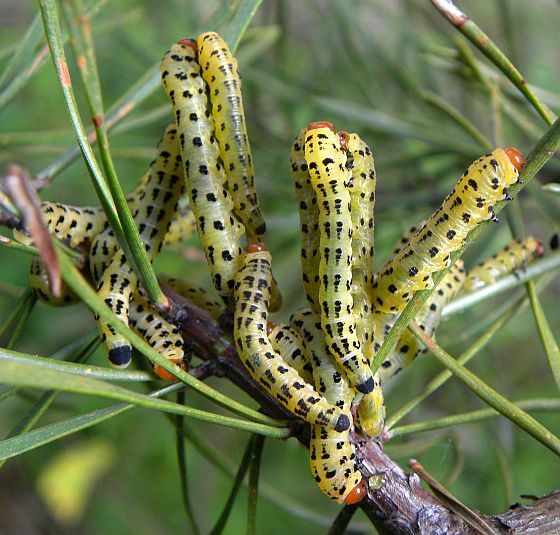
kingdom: Animalia
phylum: Arthropoda
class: Insecta
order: Hymenoptera
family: Diprionidae
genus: Neodiprion
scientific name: Neodiprion lecontei
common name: Redheaded pine sawfly
